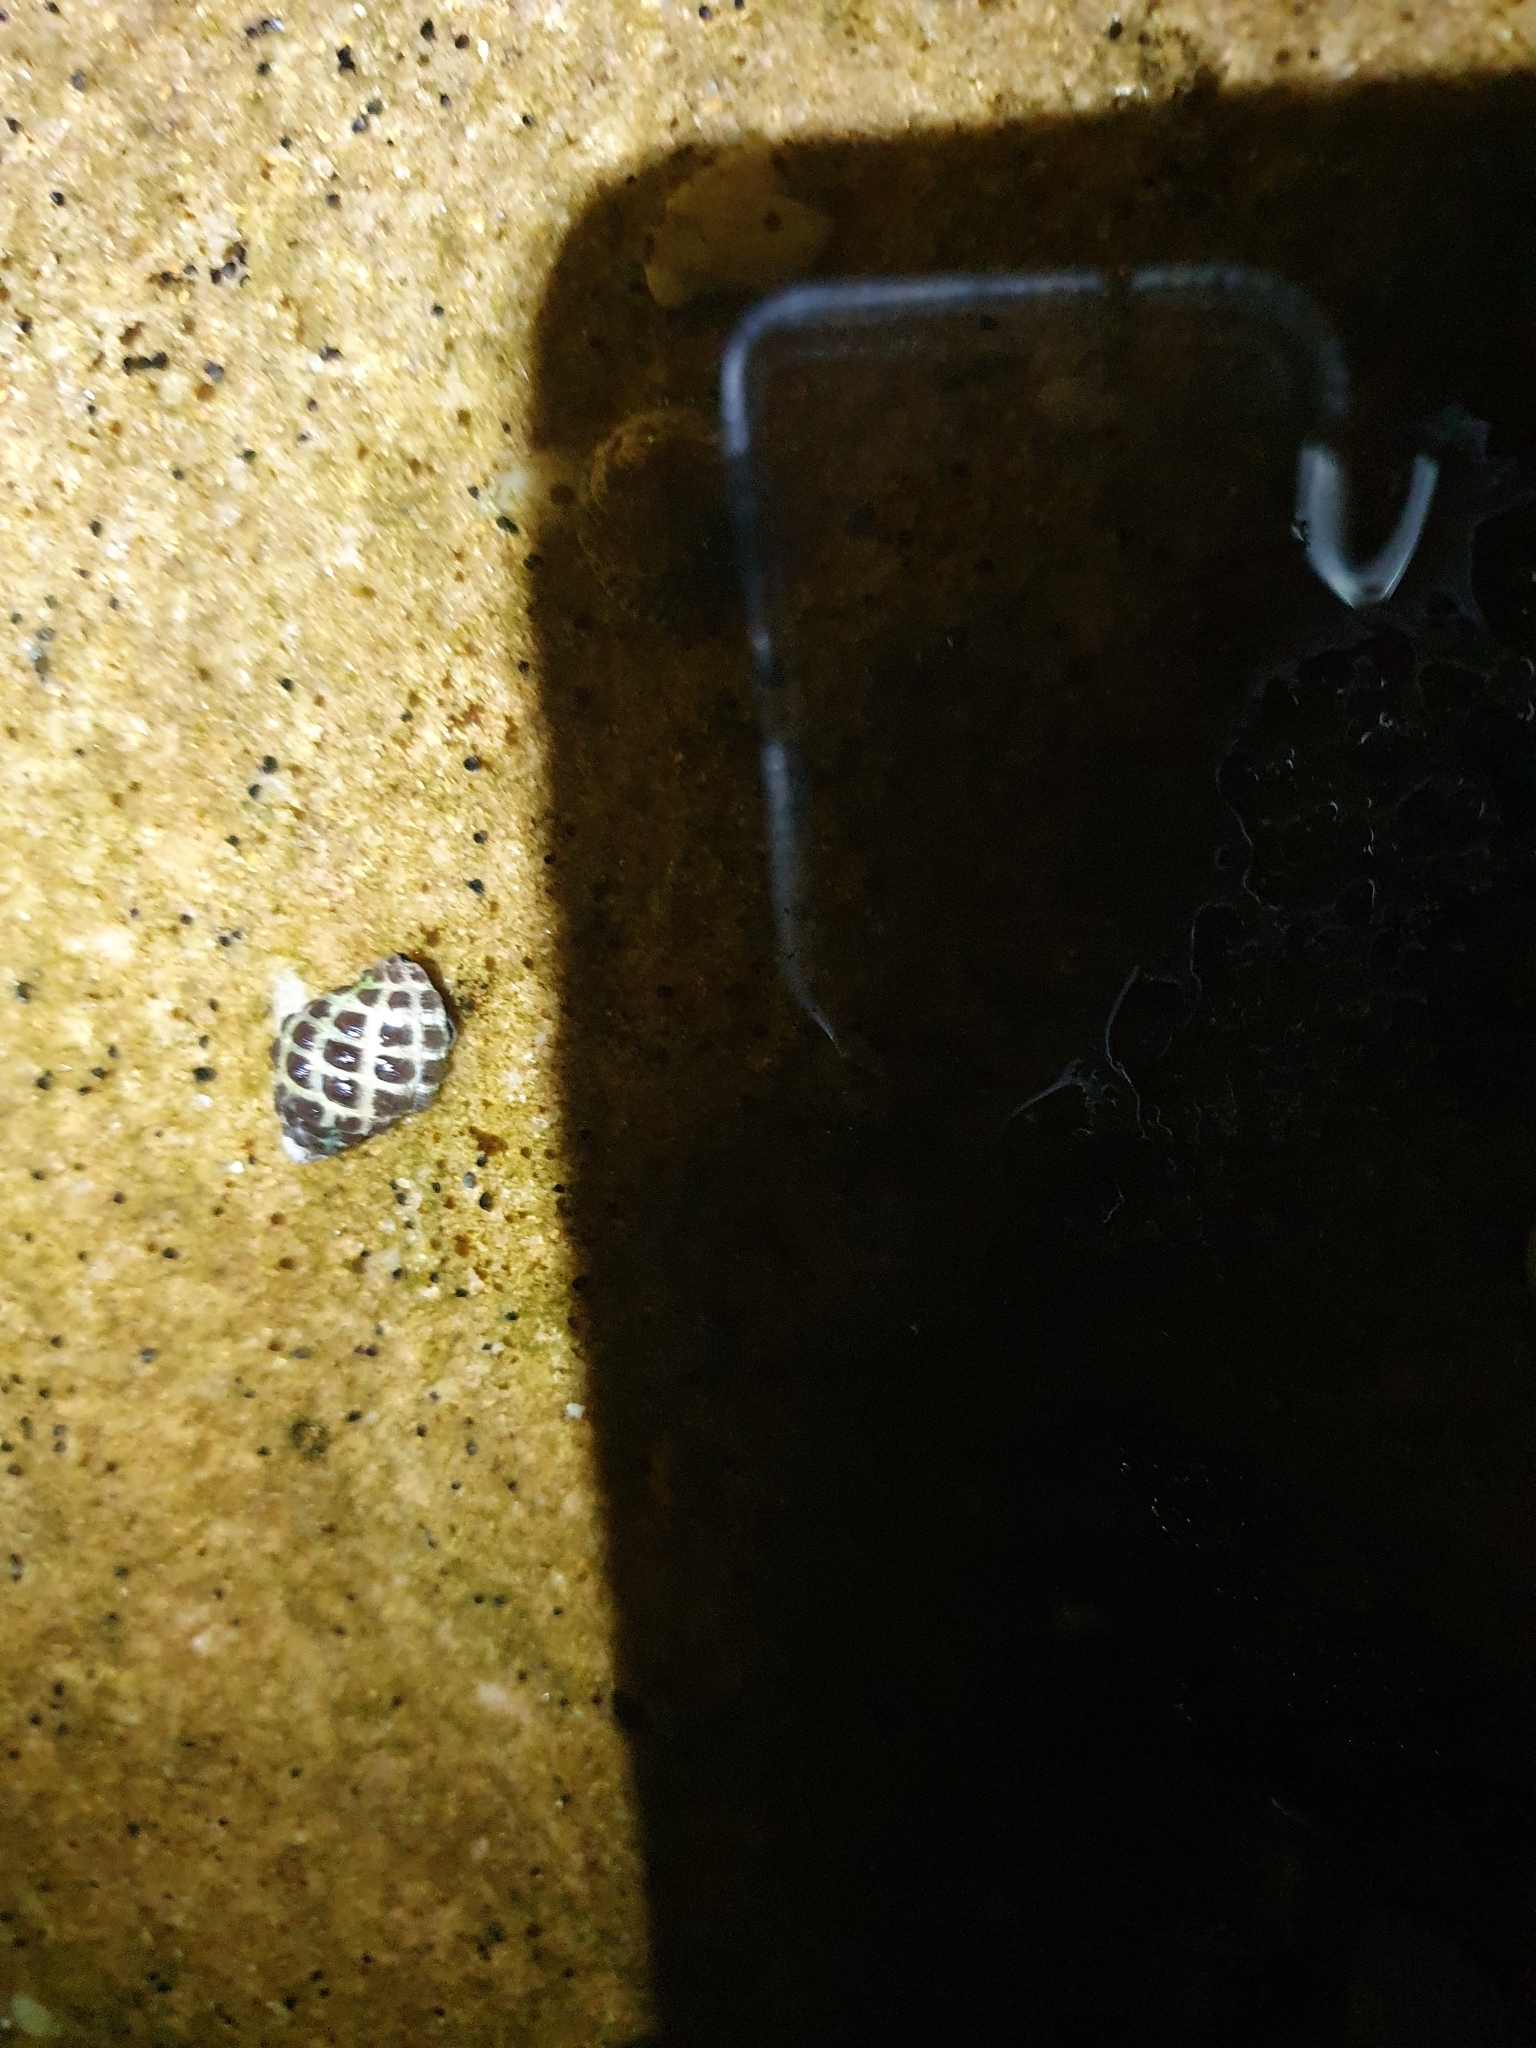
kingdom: Animalia
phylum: Mollusca
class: Gastropoda
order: Neogastropoda
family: Muricidae
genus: Tenguella
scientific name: Tenguella marginalba
